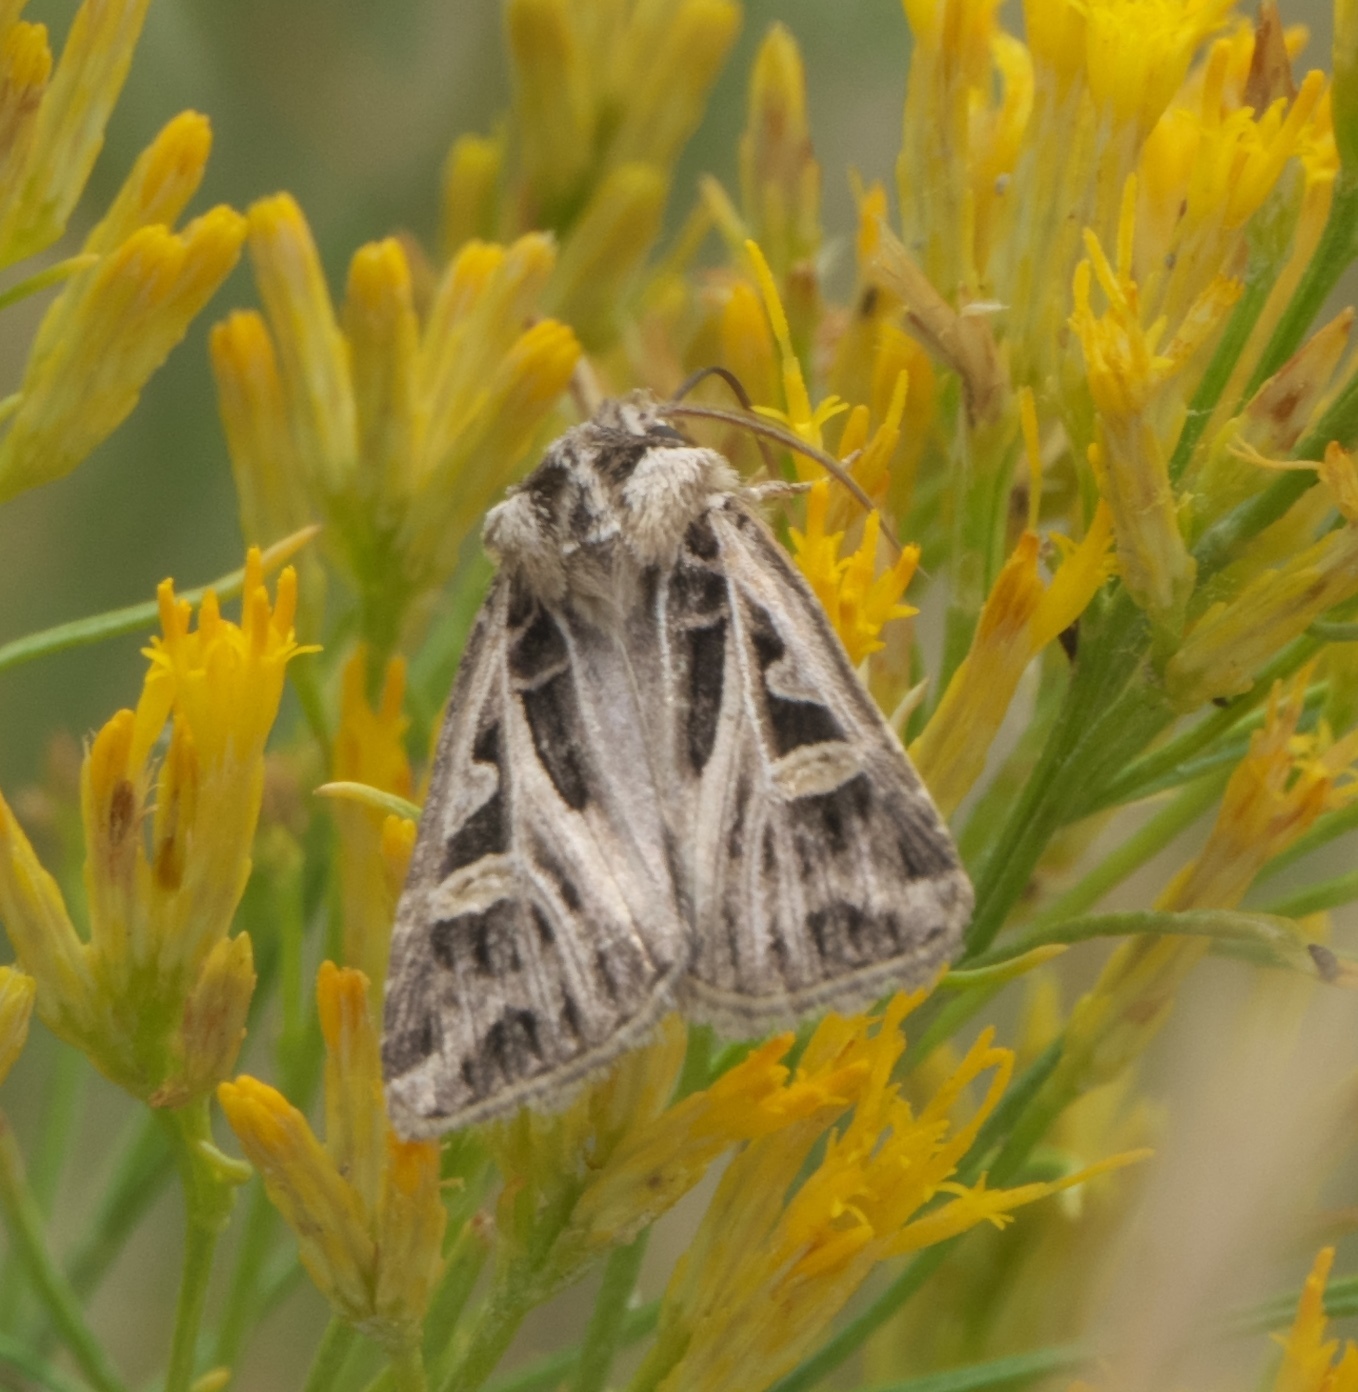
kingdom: Animalia
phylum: Arthropoda
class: Insecta
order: Lepidoptera
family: Noctuidae
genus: Feltia
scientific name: Feltia jaculifera
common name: Dingy cutworm moth
